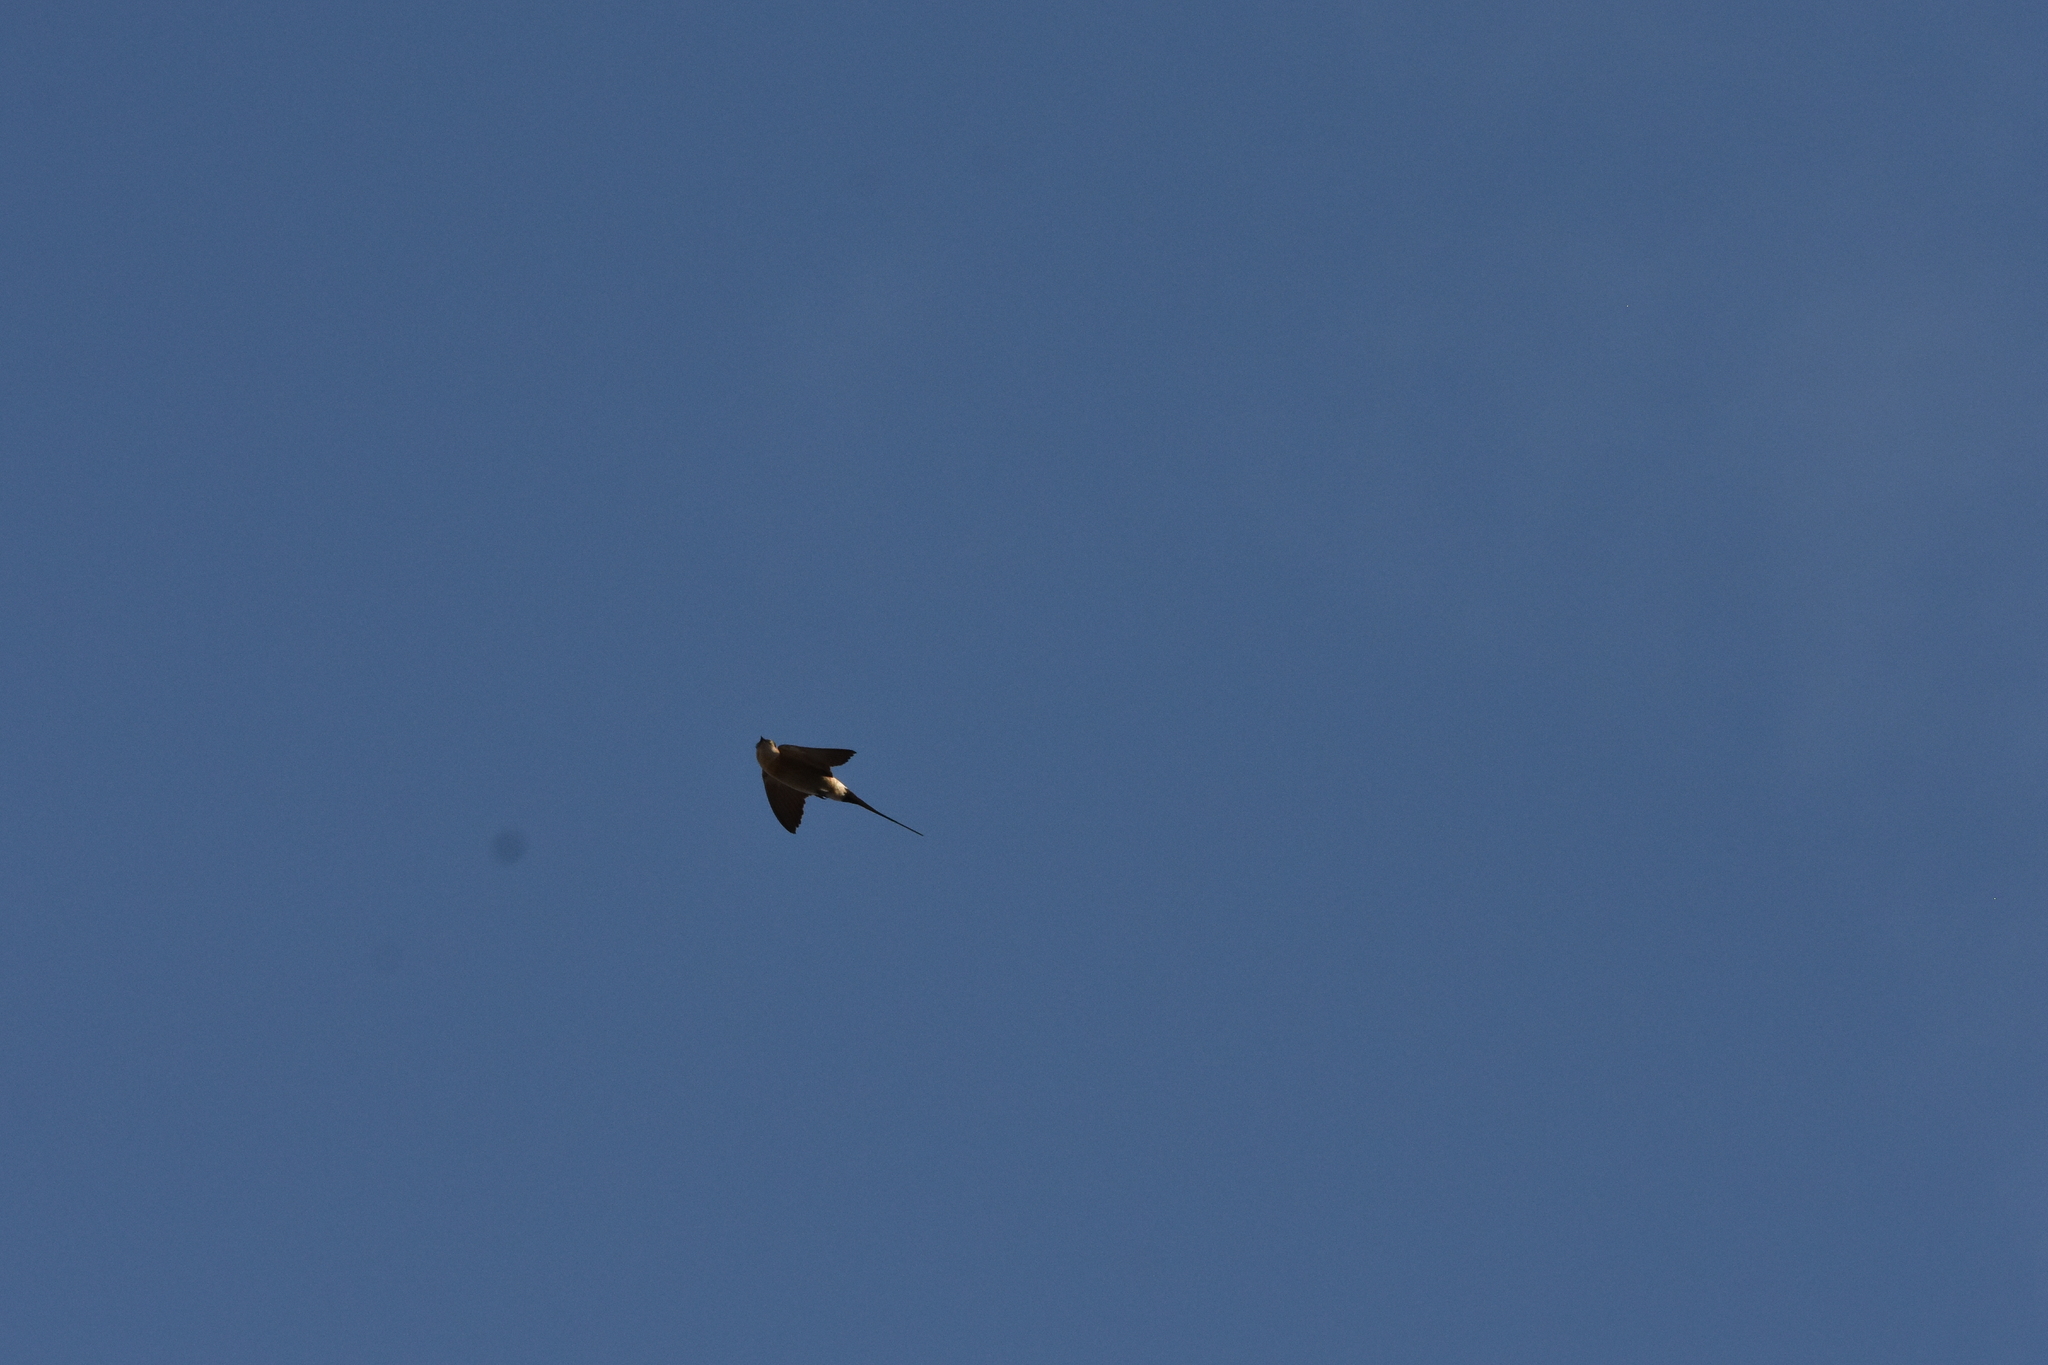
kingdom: Animalia
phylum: Chordata
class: Aves
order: Passeriformes
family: Hirundinidae
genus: Cecropis
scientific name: Cecropis daurica
